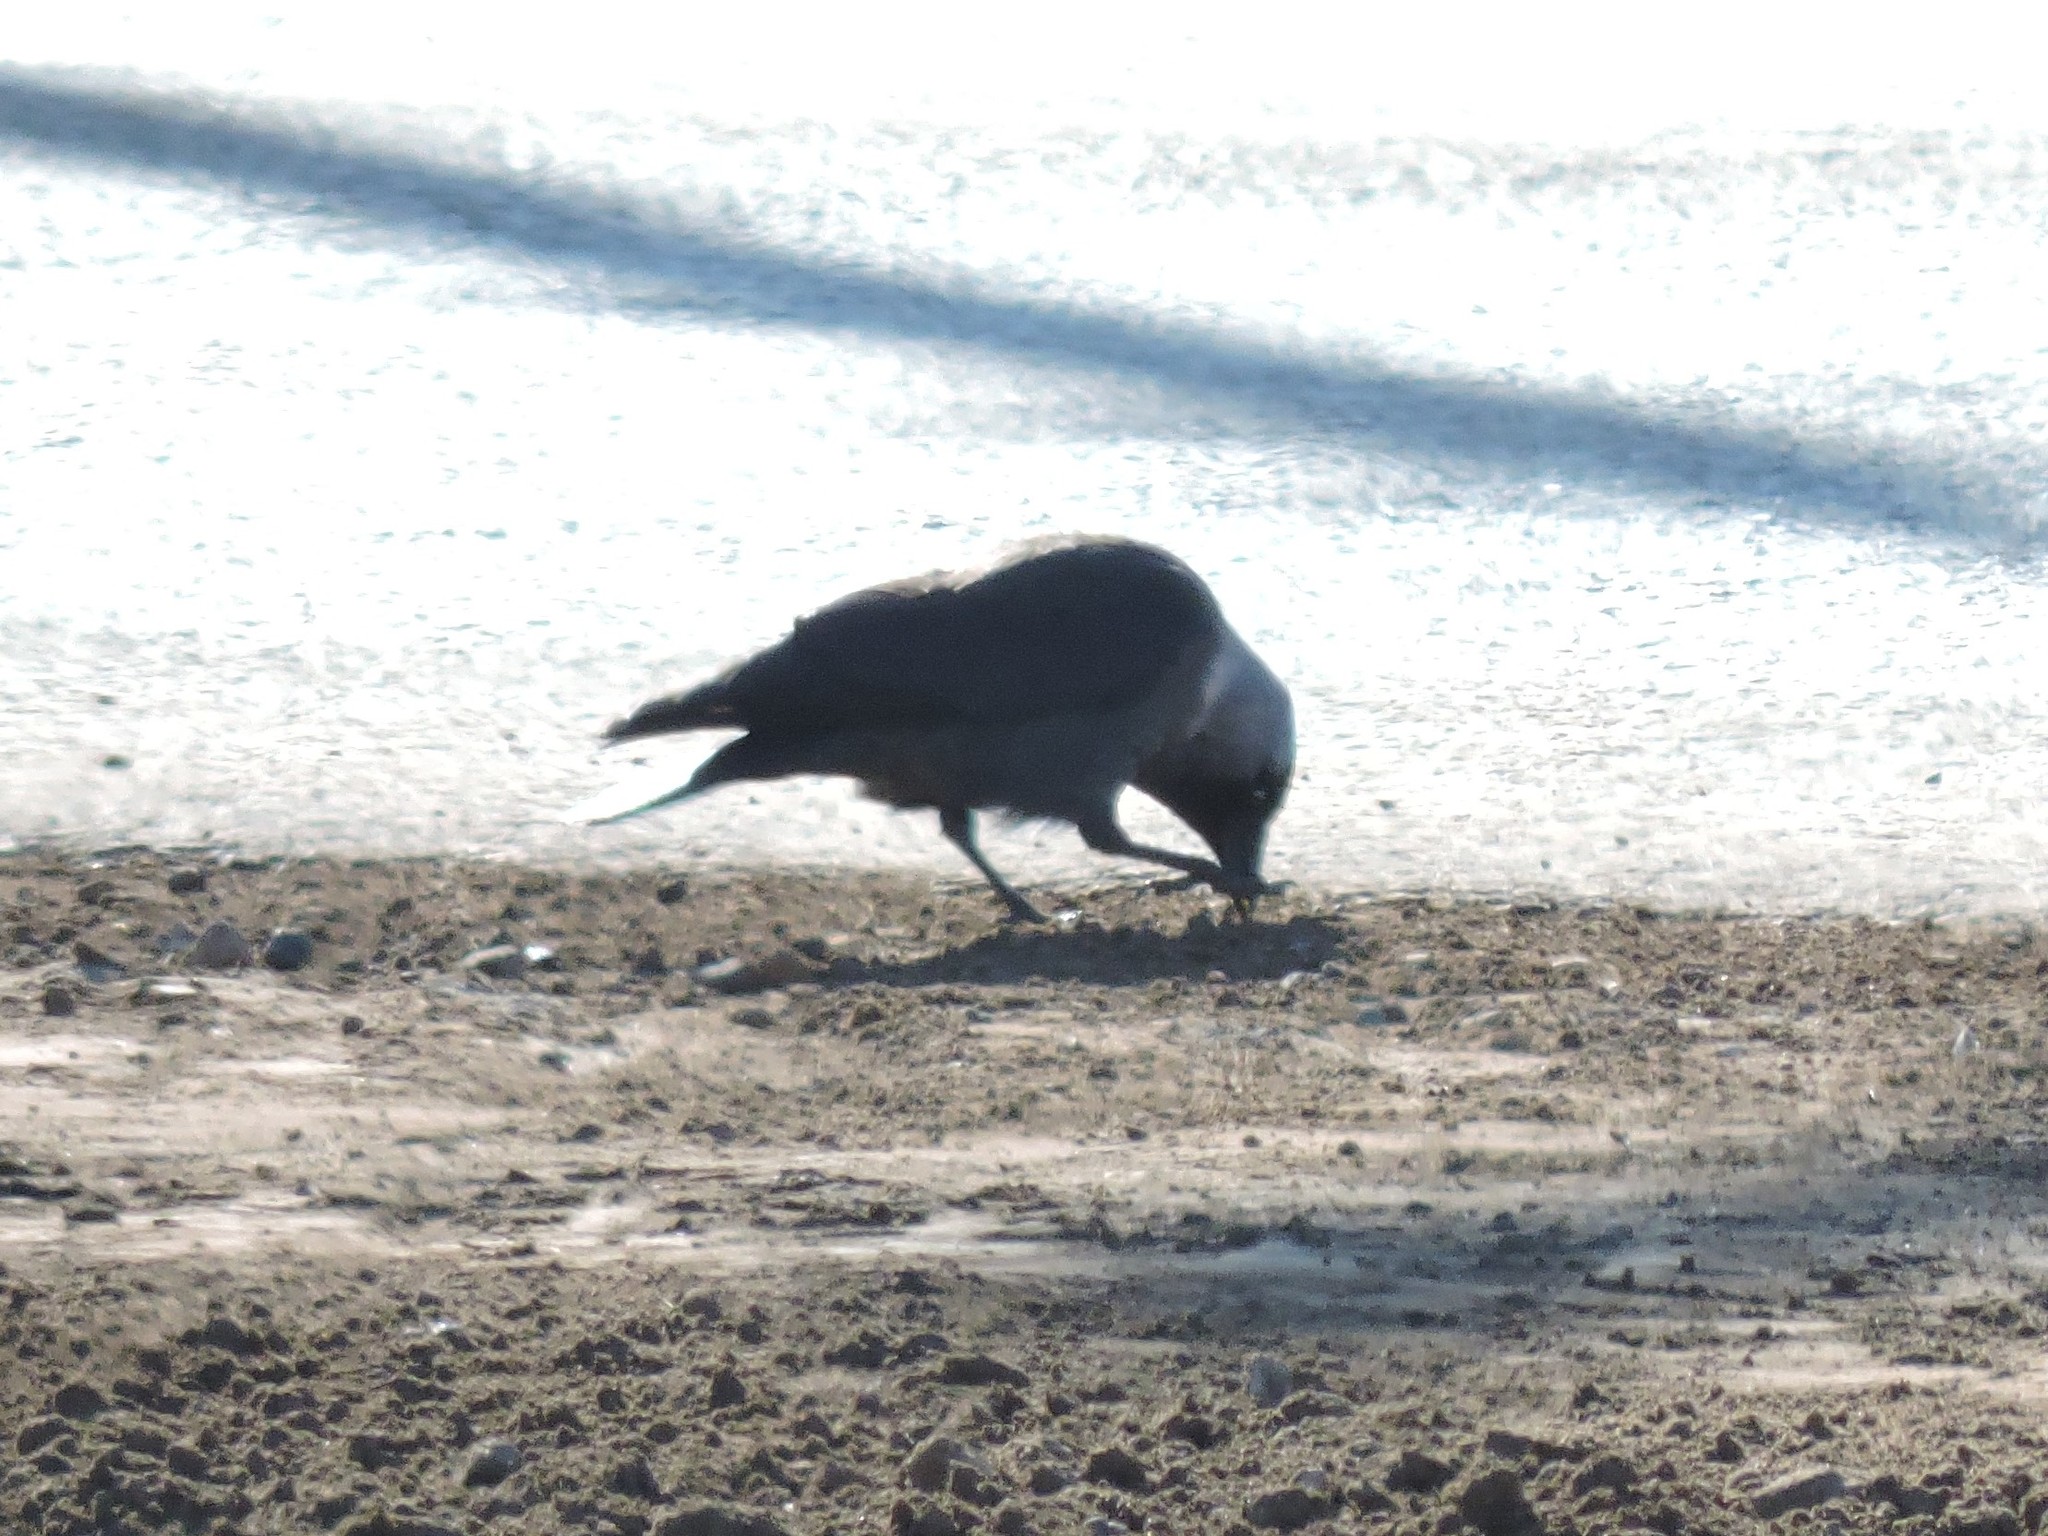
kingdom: Animalia
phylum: Chordata
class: Aves
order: Passeriformes
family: Corvidae
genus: Coloeus
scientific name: Coloeus monedula
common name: Western jackdaw
